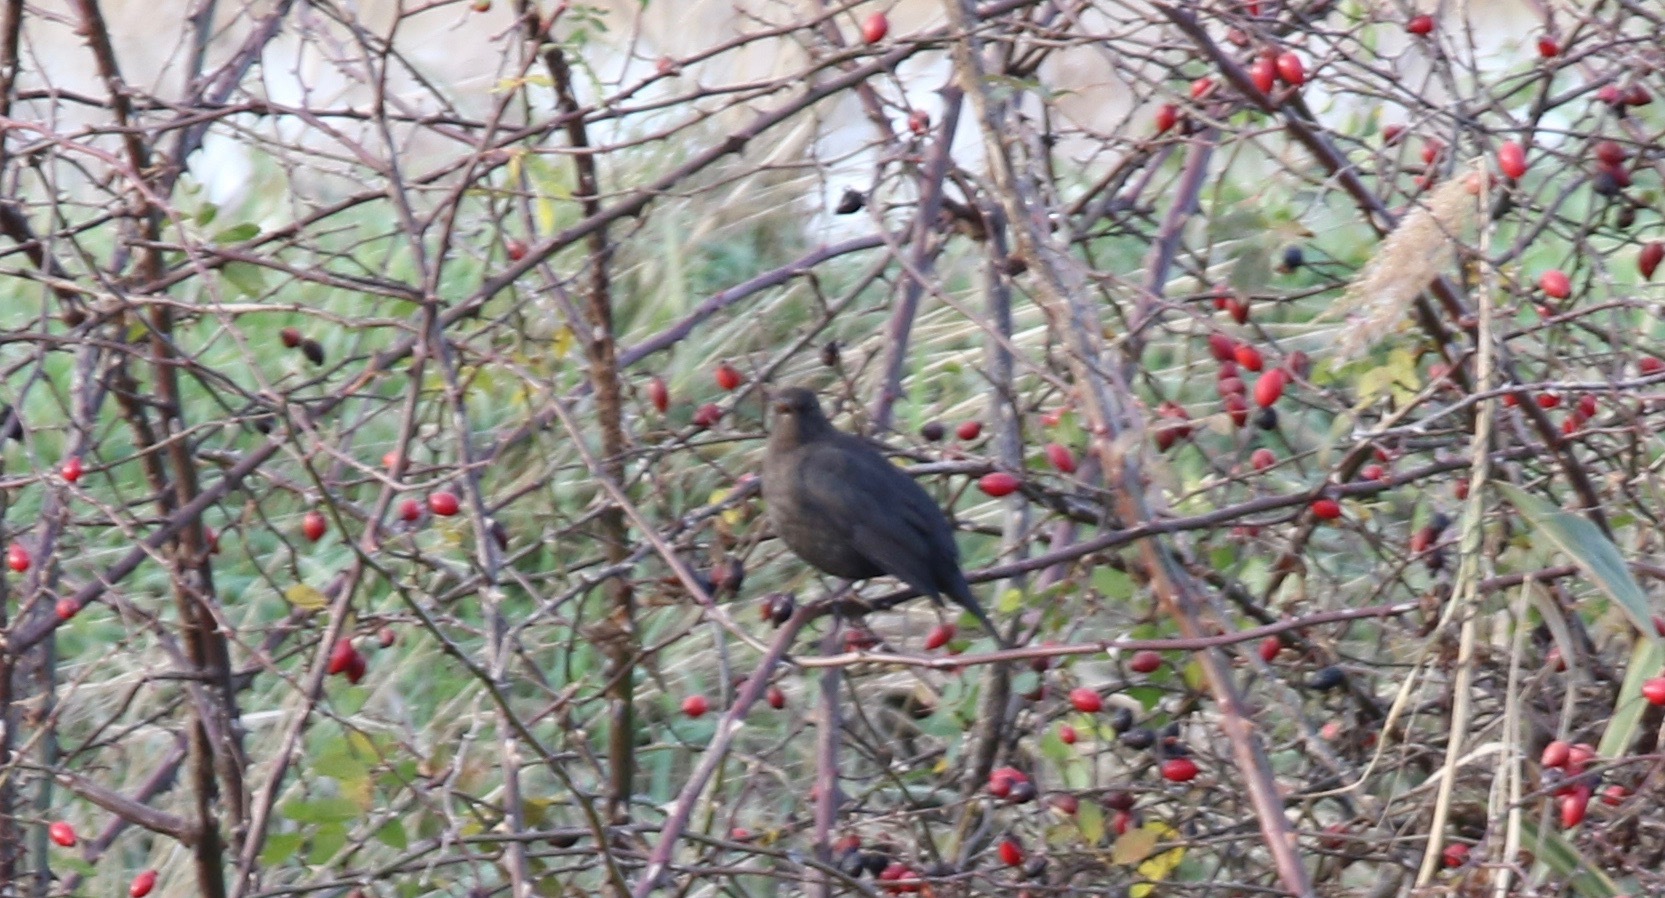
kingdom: Animalia
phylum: Chordata
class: Aves
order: Passeriformes
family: Turdidae
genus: Turdus
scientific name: Turdus merula
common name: Common blackbird
